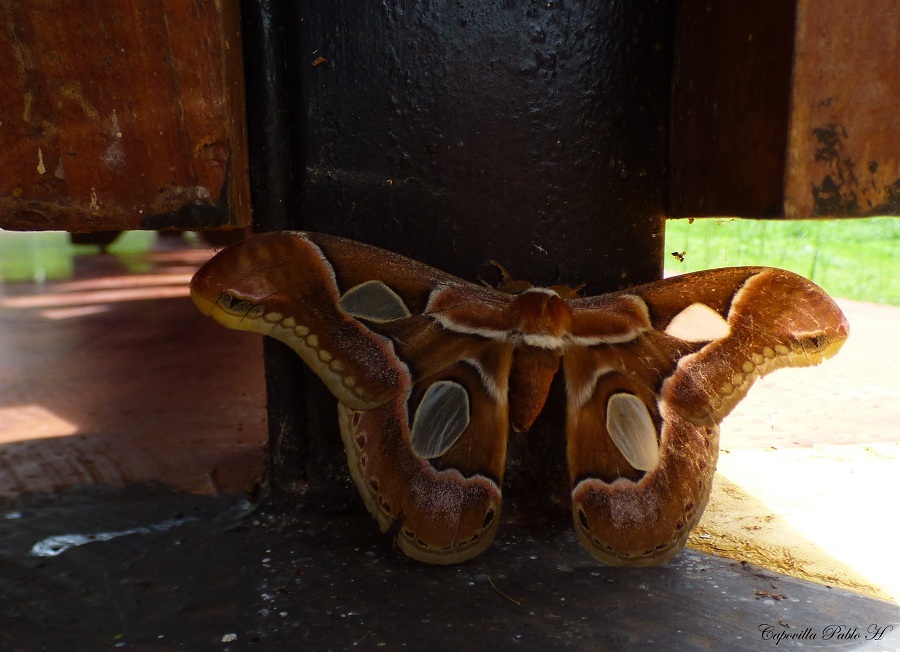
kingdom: Animalia
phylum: Arthropoda
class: Insecta
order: Lepidoptera
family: Saturniidae
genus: Rothschildia
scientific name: Rothschildia arethusa
